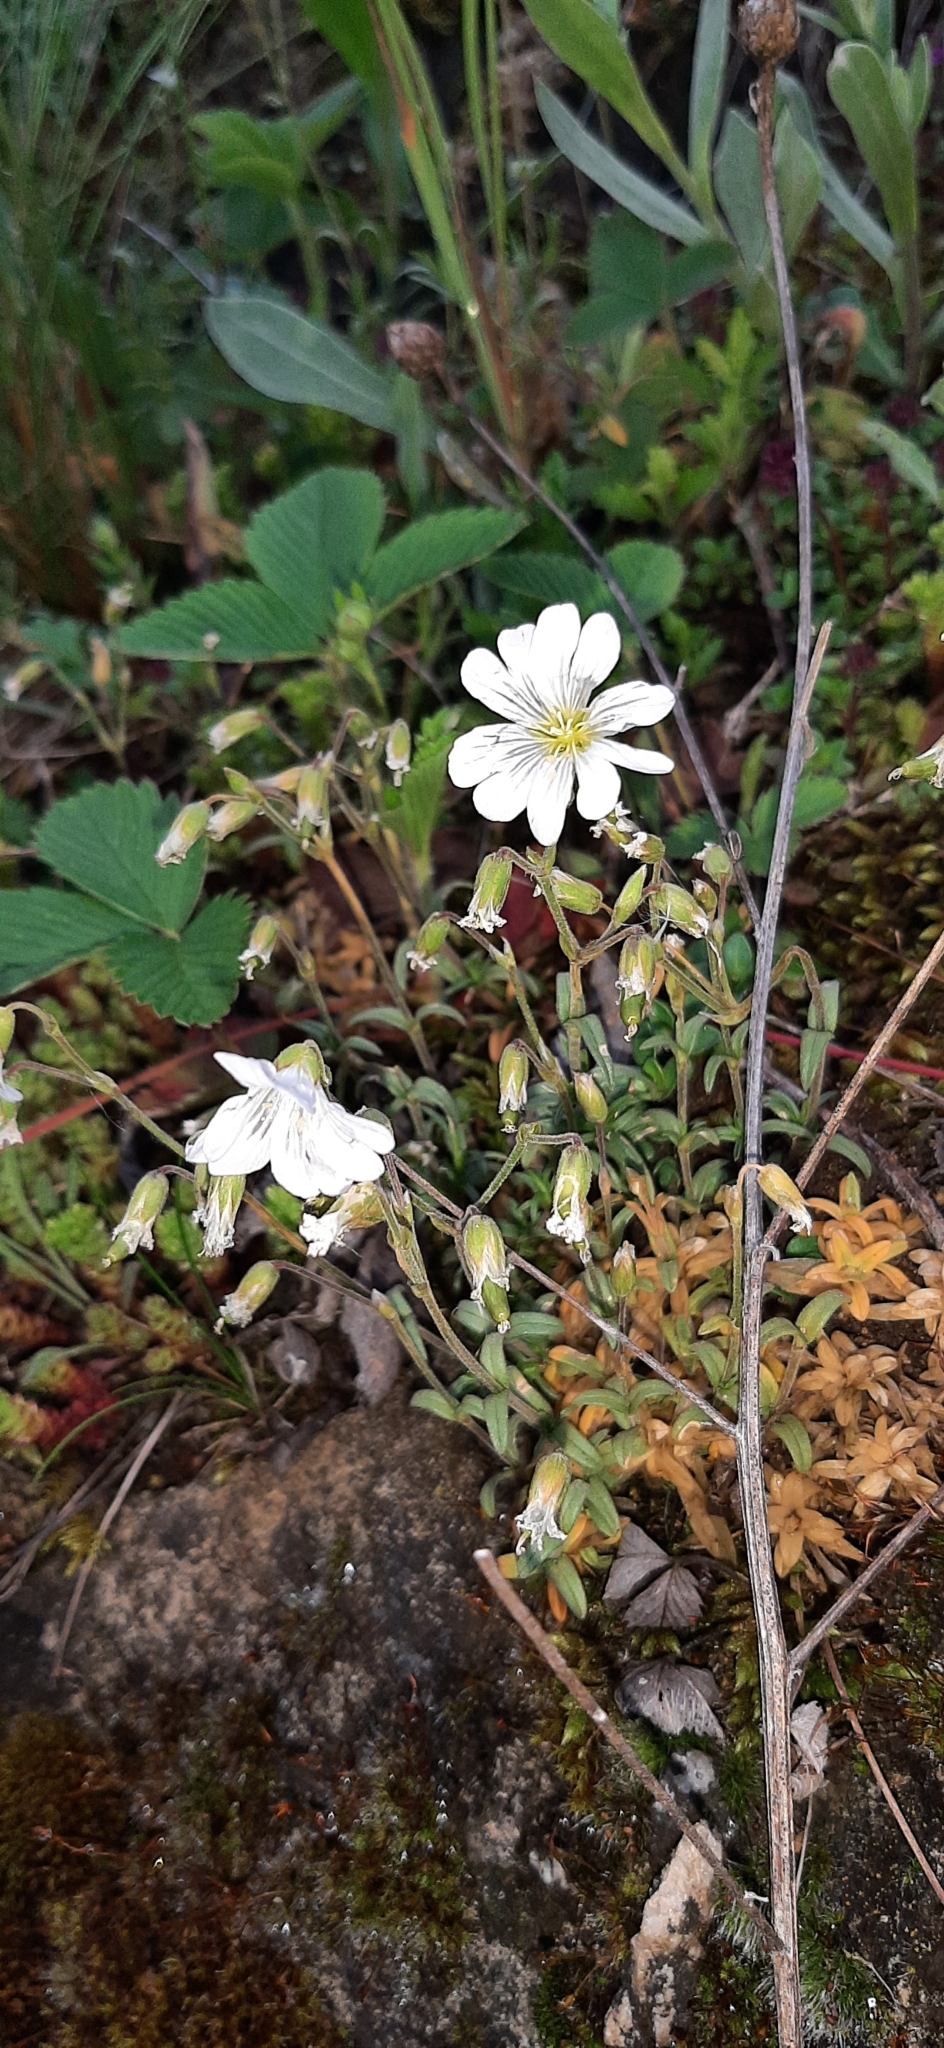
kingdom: Plantae
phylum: Tracheophyta
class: Magnoliopsida
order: Caryophyllales
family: Caryophyllaceae
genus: Cerastium
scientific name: Cerastium arvense
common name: Field mouse-ear
